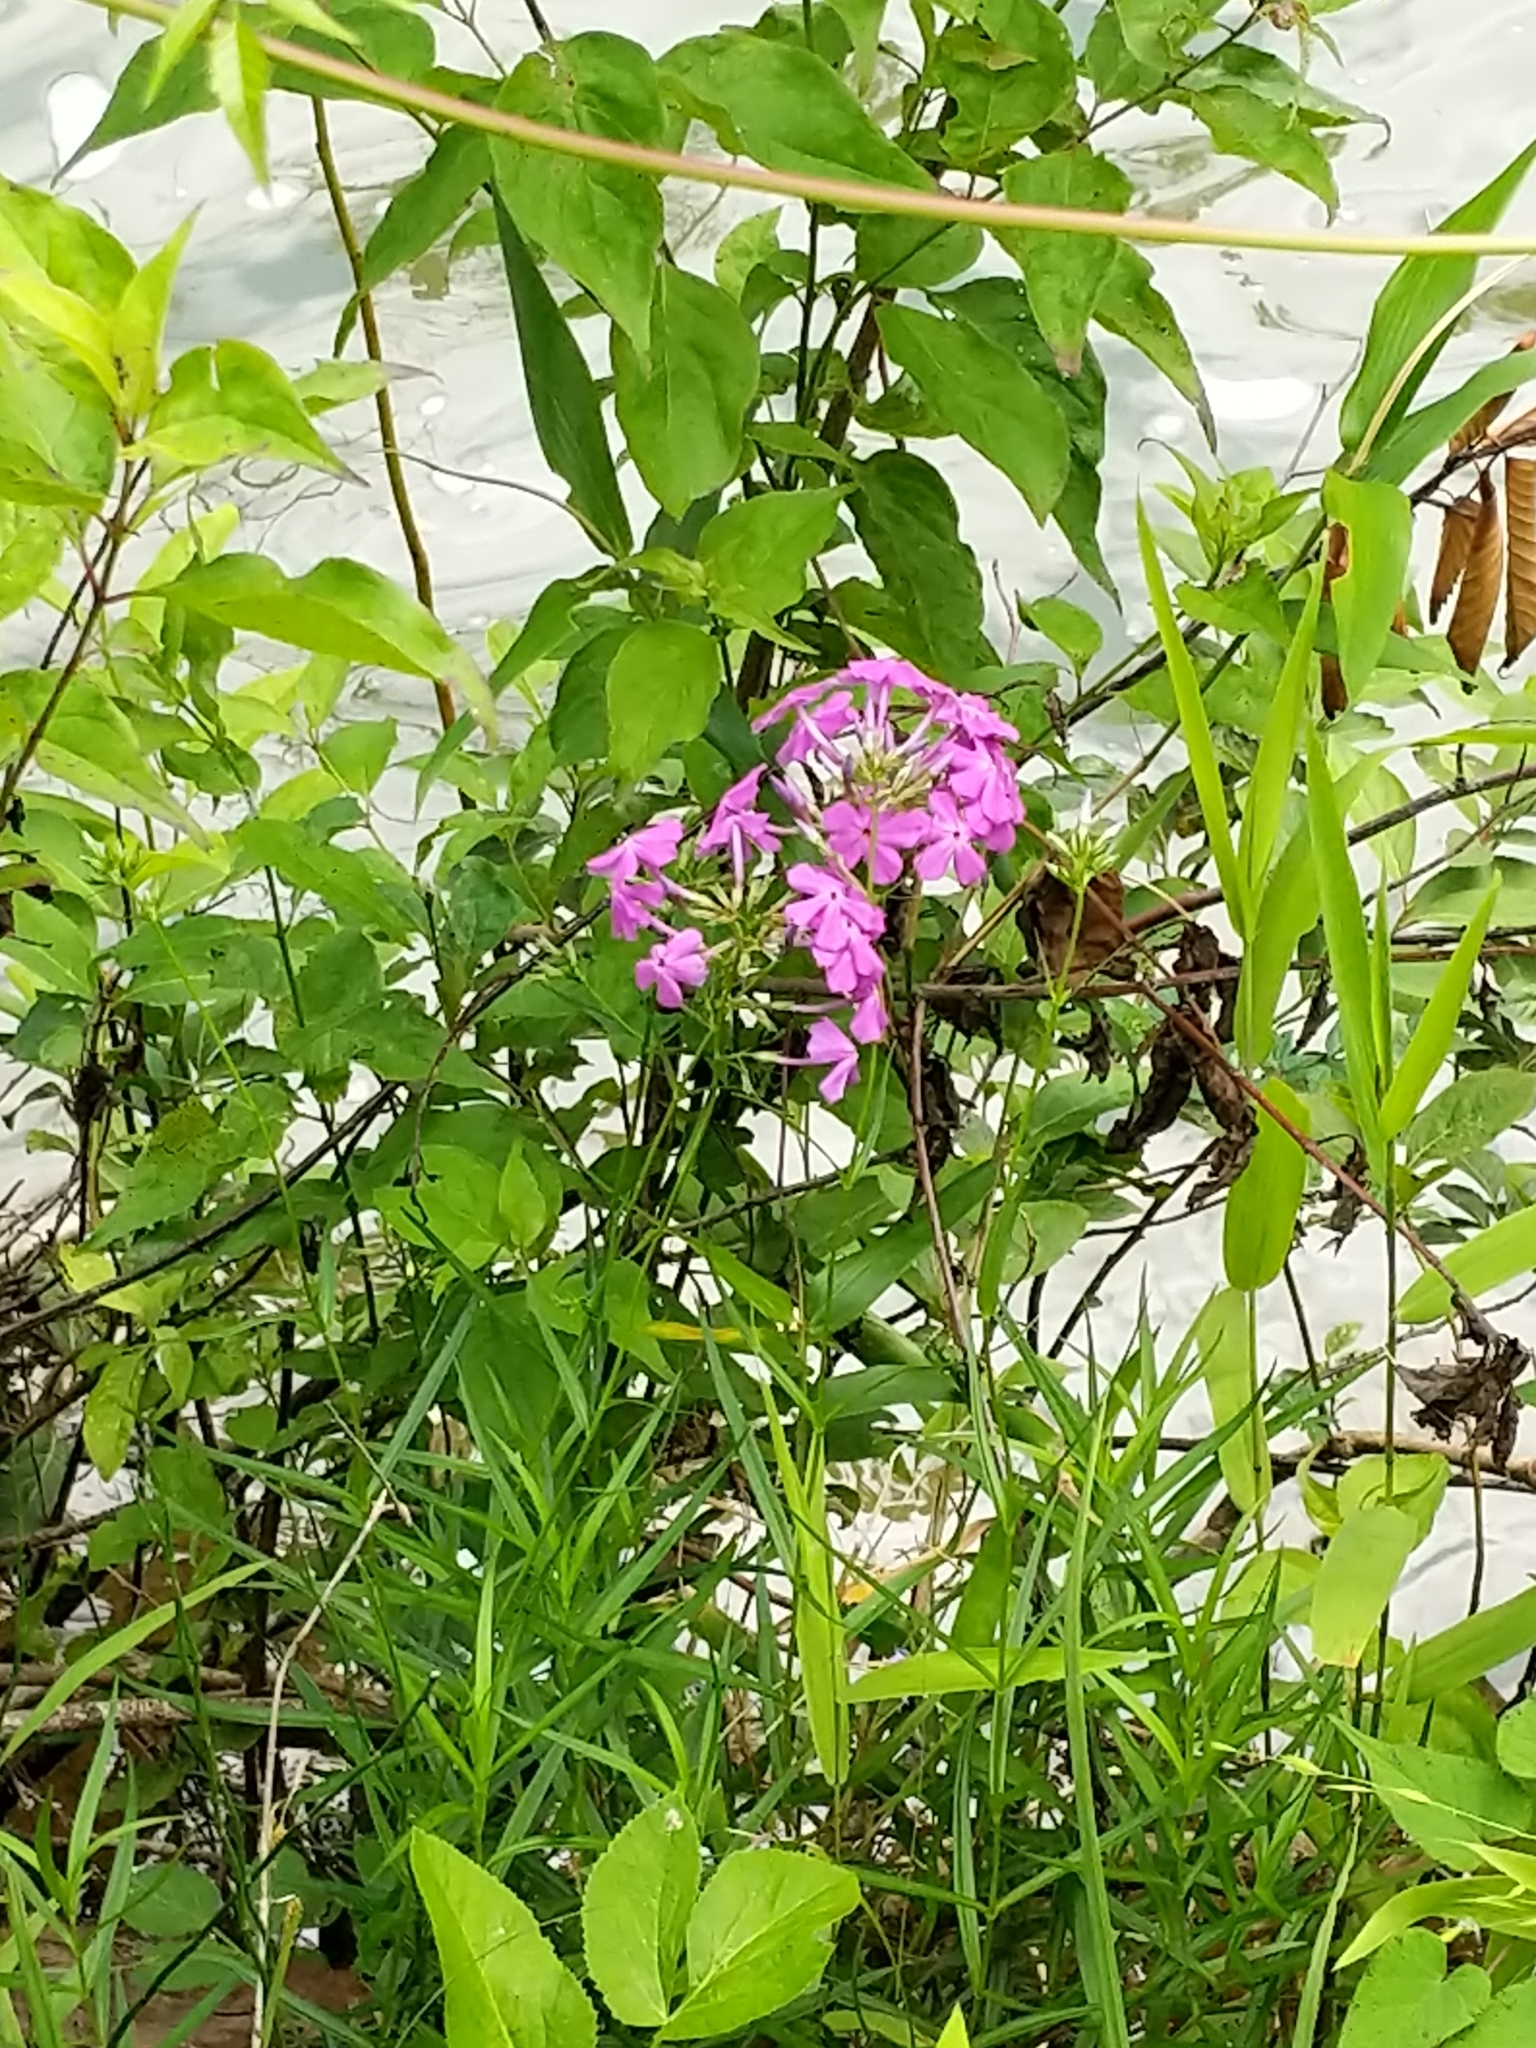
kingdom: Plantae
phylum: Tracheophyta
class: Magnoliopsida
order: Ericales
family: Polemoniaceae
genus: Phlox
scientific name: Phlox carolina
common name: Thick-leaf phlox
